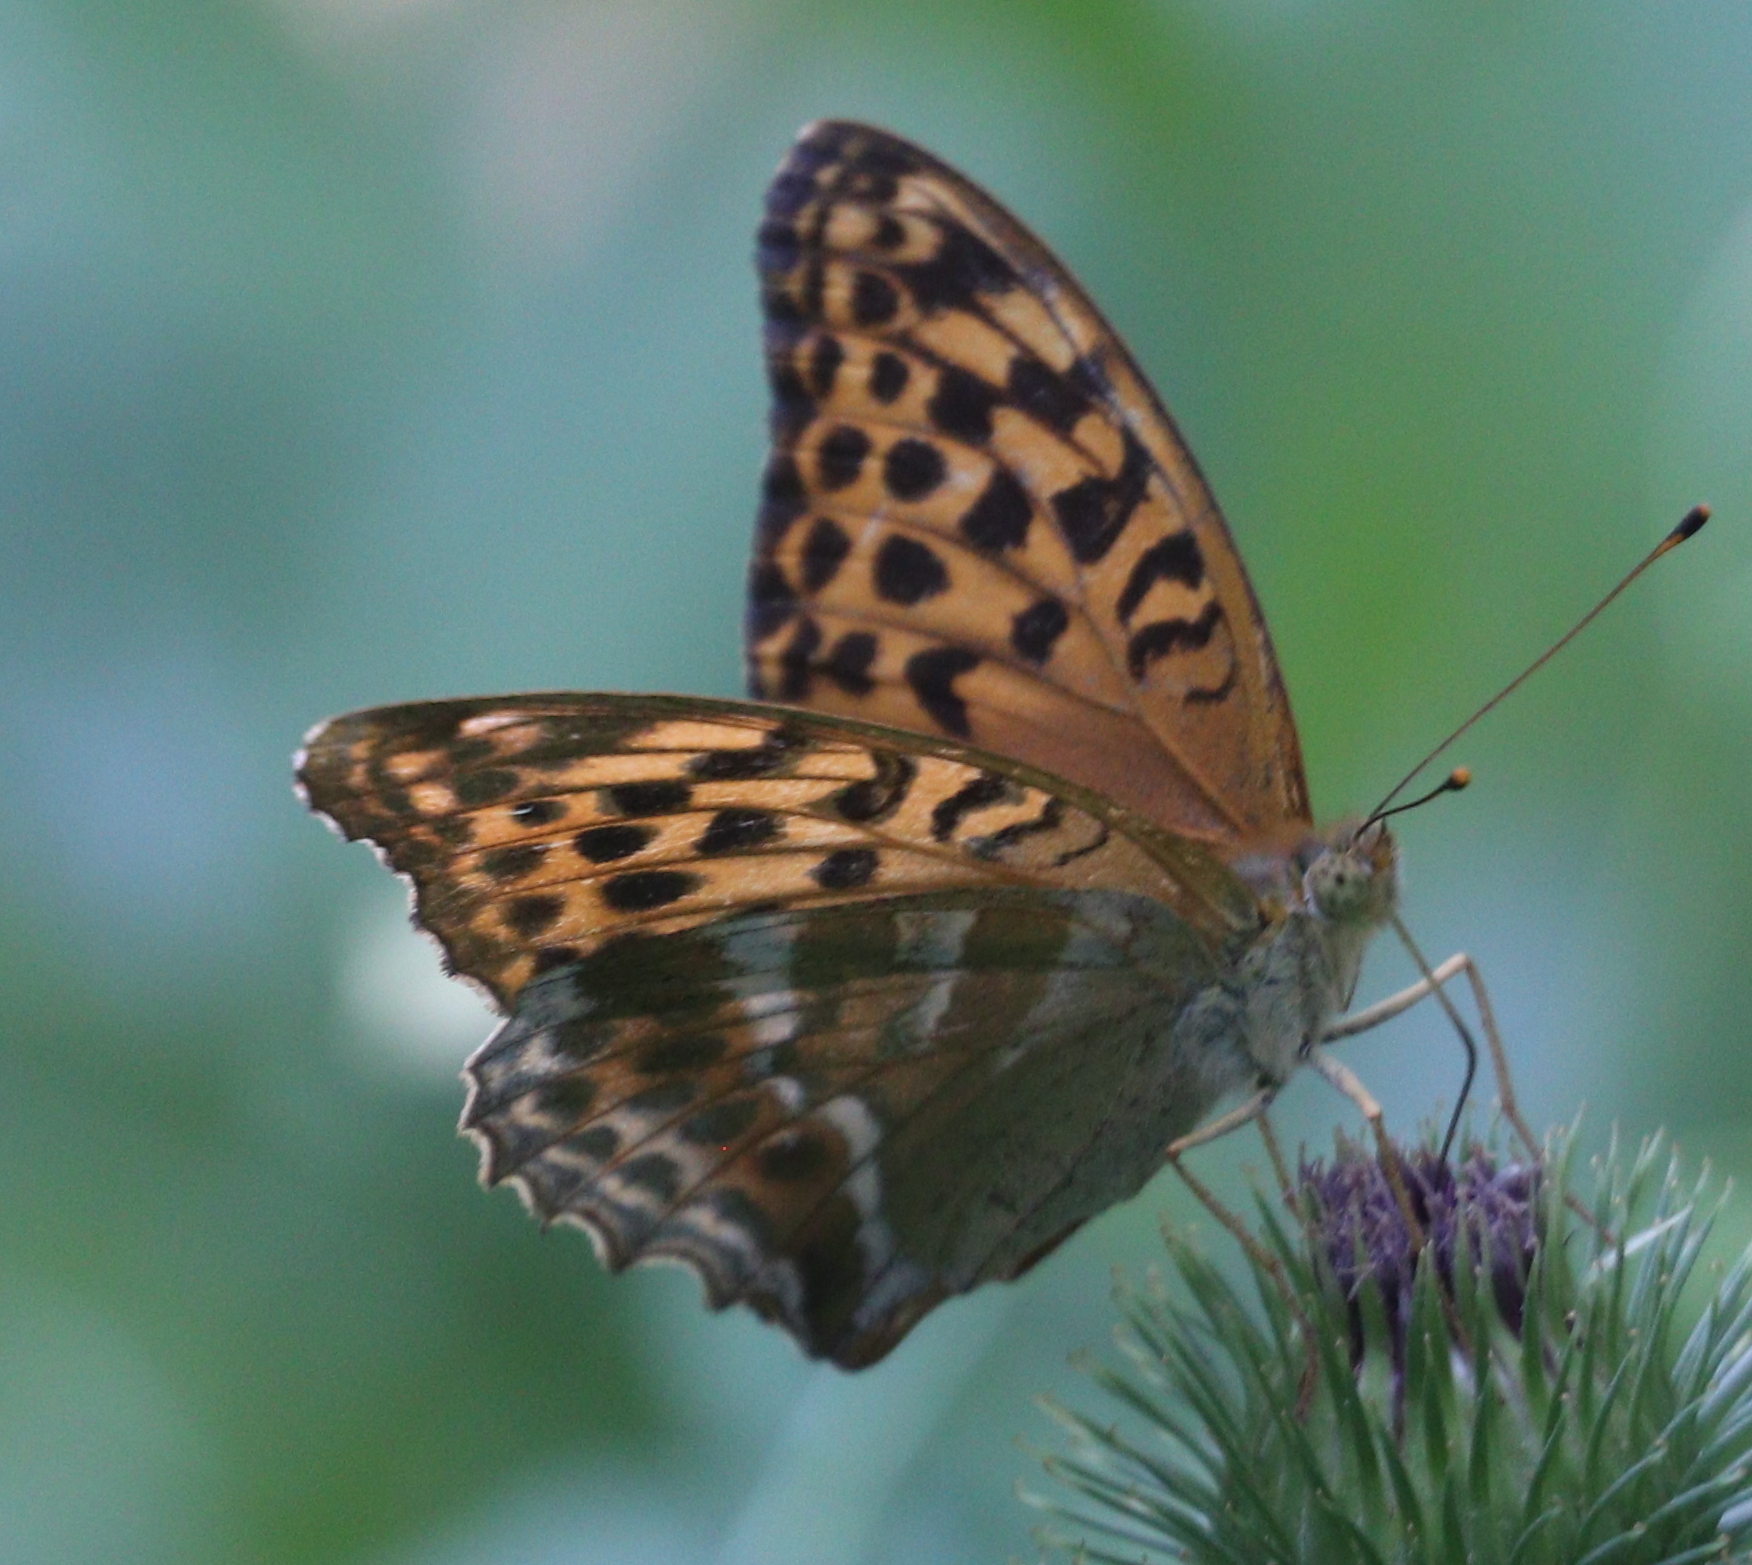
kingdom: Animalia
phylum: Arthropoda
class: Insecta
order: Lepidoptera
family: Nymphalidae
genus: Argynnis
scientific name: Argynnis paphia
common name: Silver-washed fritillary
